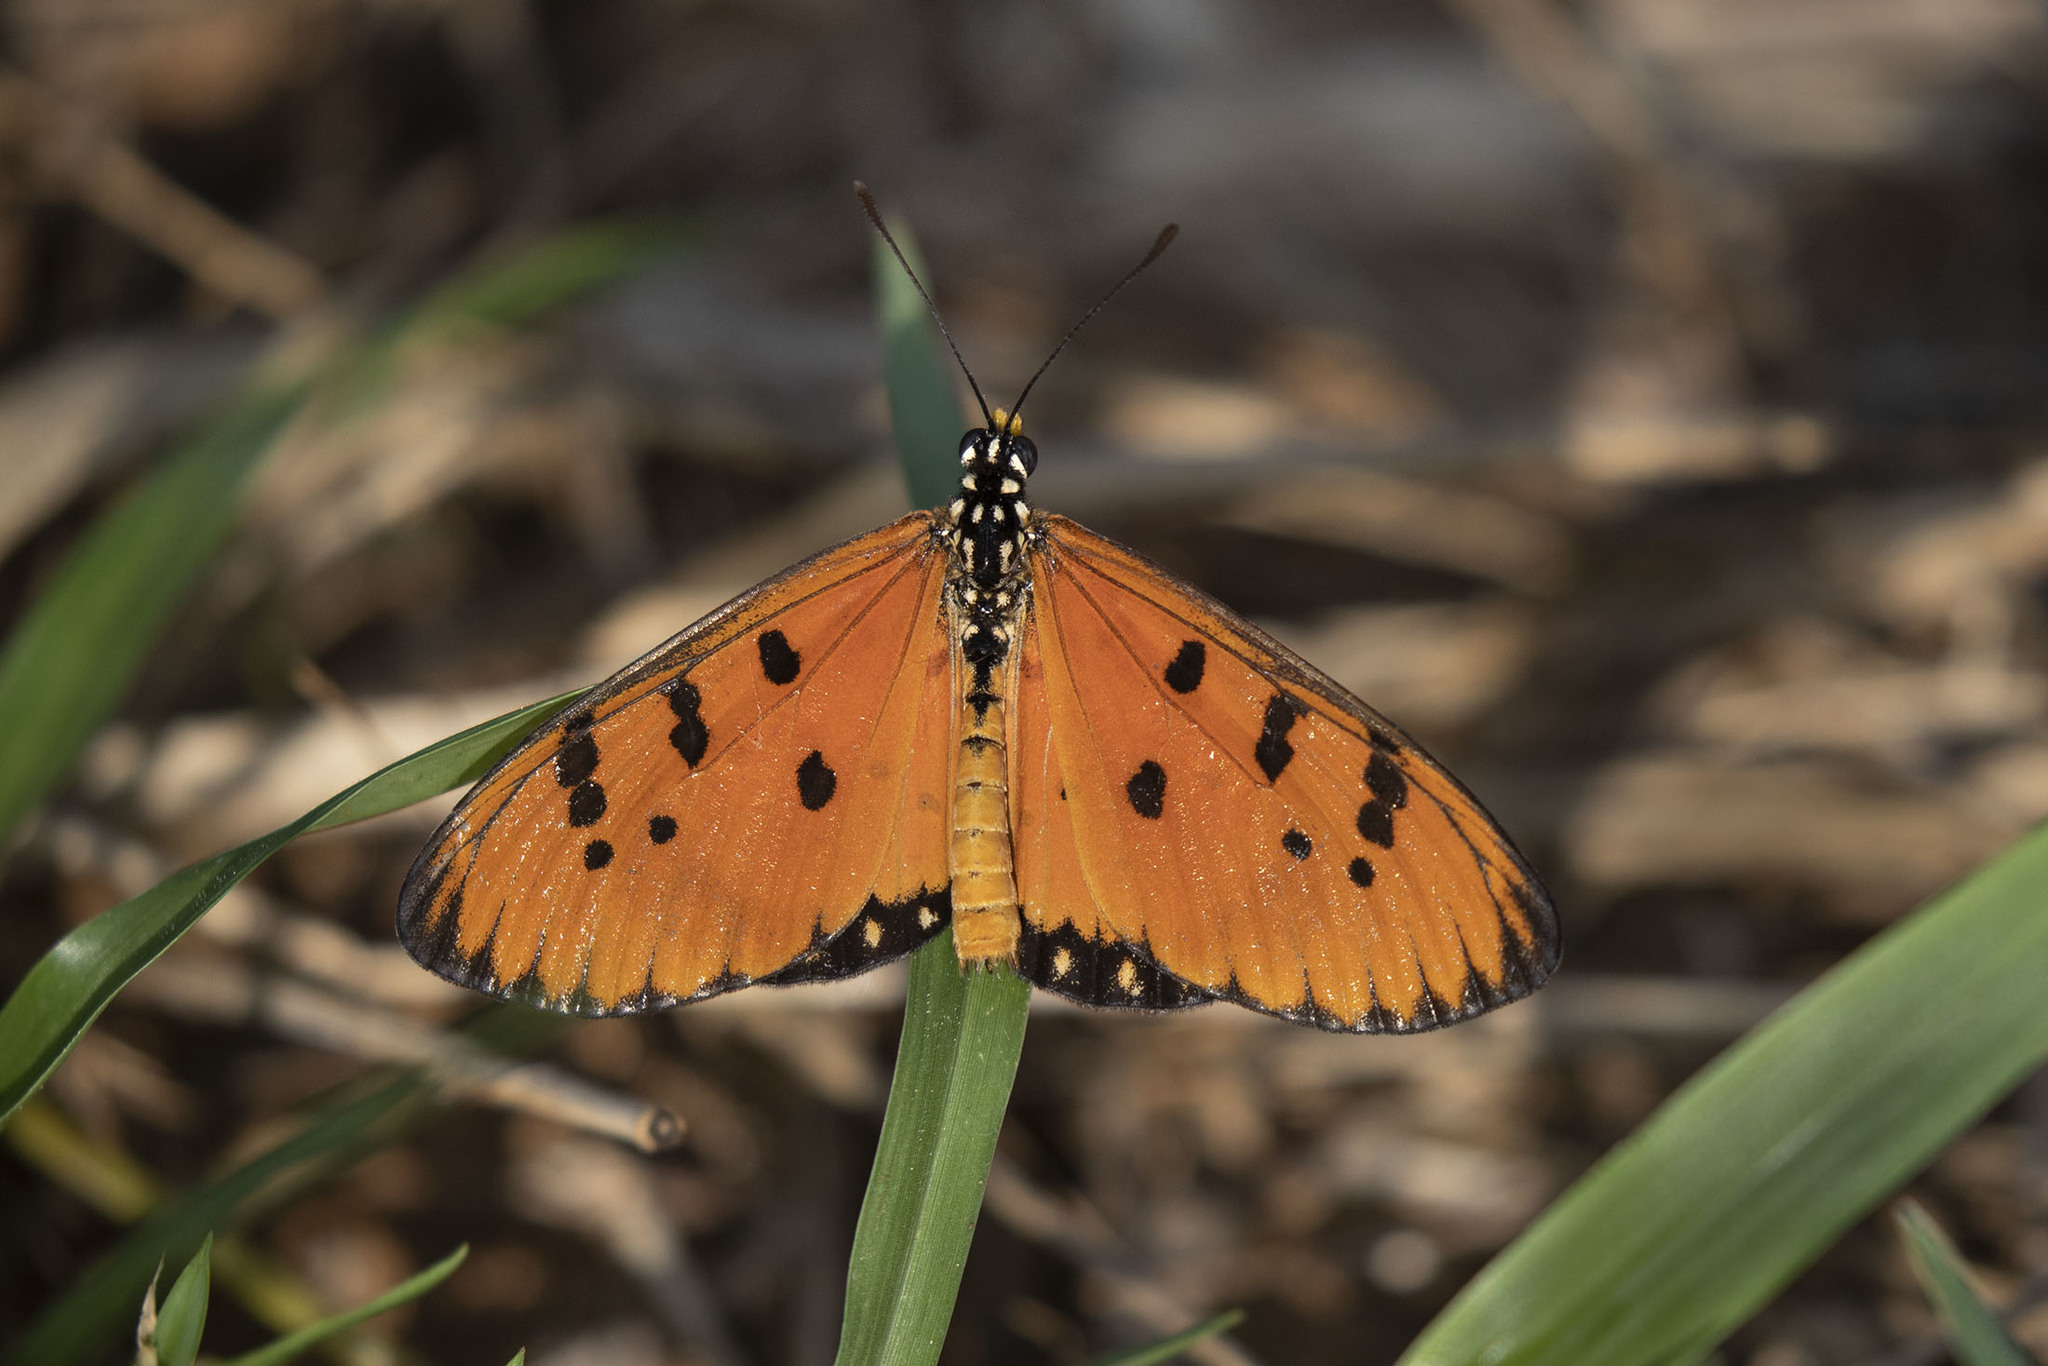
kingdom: Animalia
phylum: Arthropoda
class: Insecta
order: Lepidoptera
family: Nymphalidae
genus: Acraea
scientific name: Acraea terpsicore
